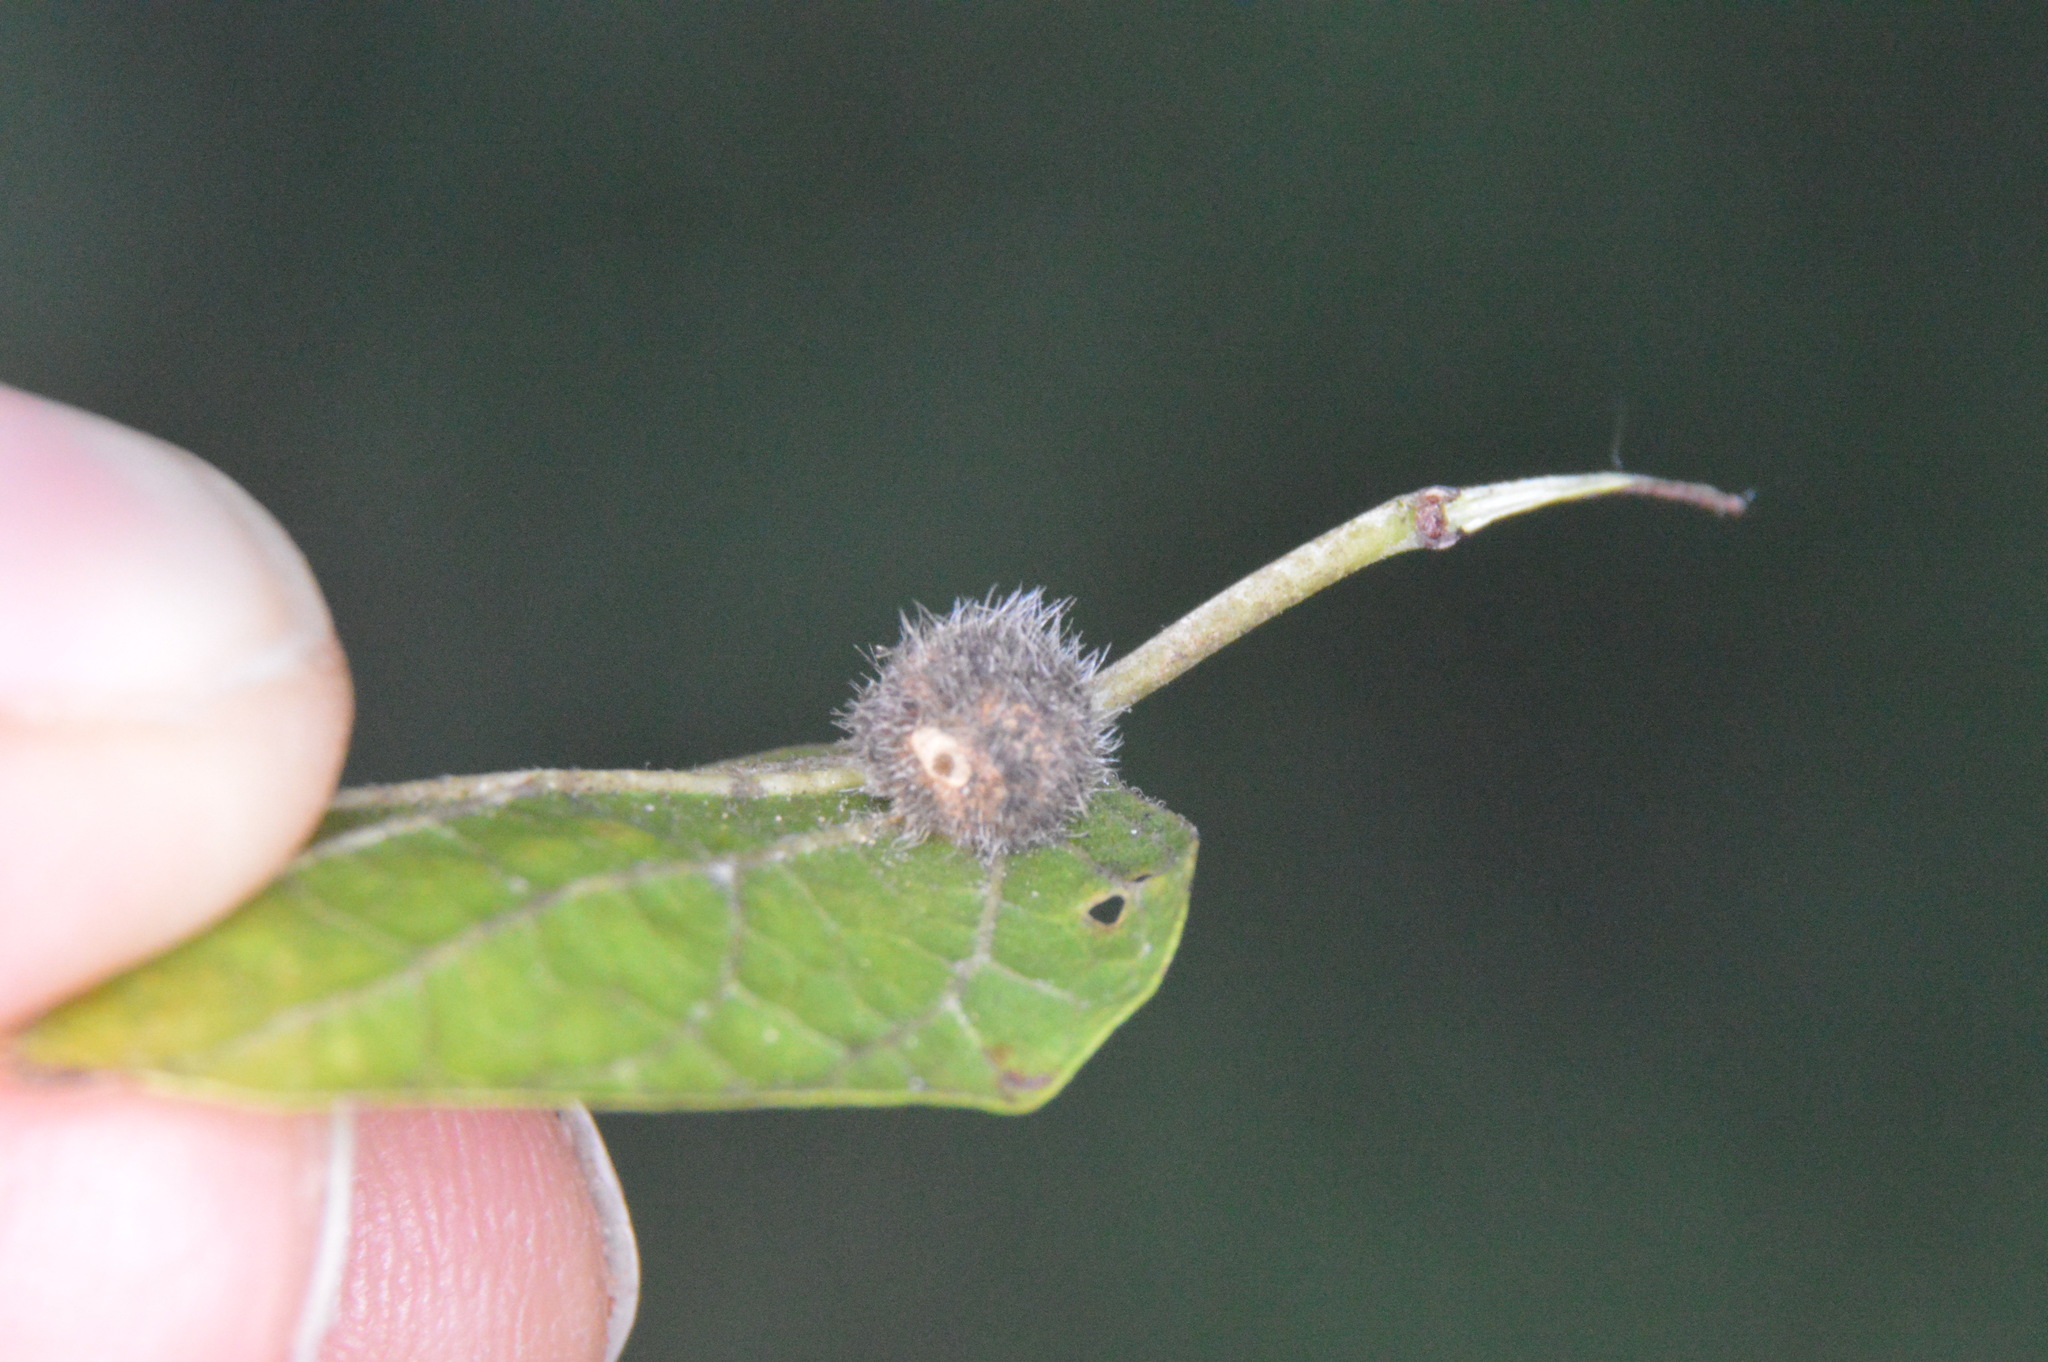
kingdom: Animalia
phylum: Arthropoda
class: Insecta
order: Diptera
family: Cecidomyiidae
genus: Celticecis
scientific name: Celticecis pubescens
